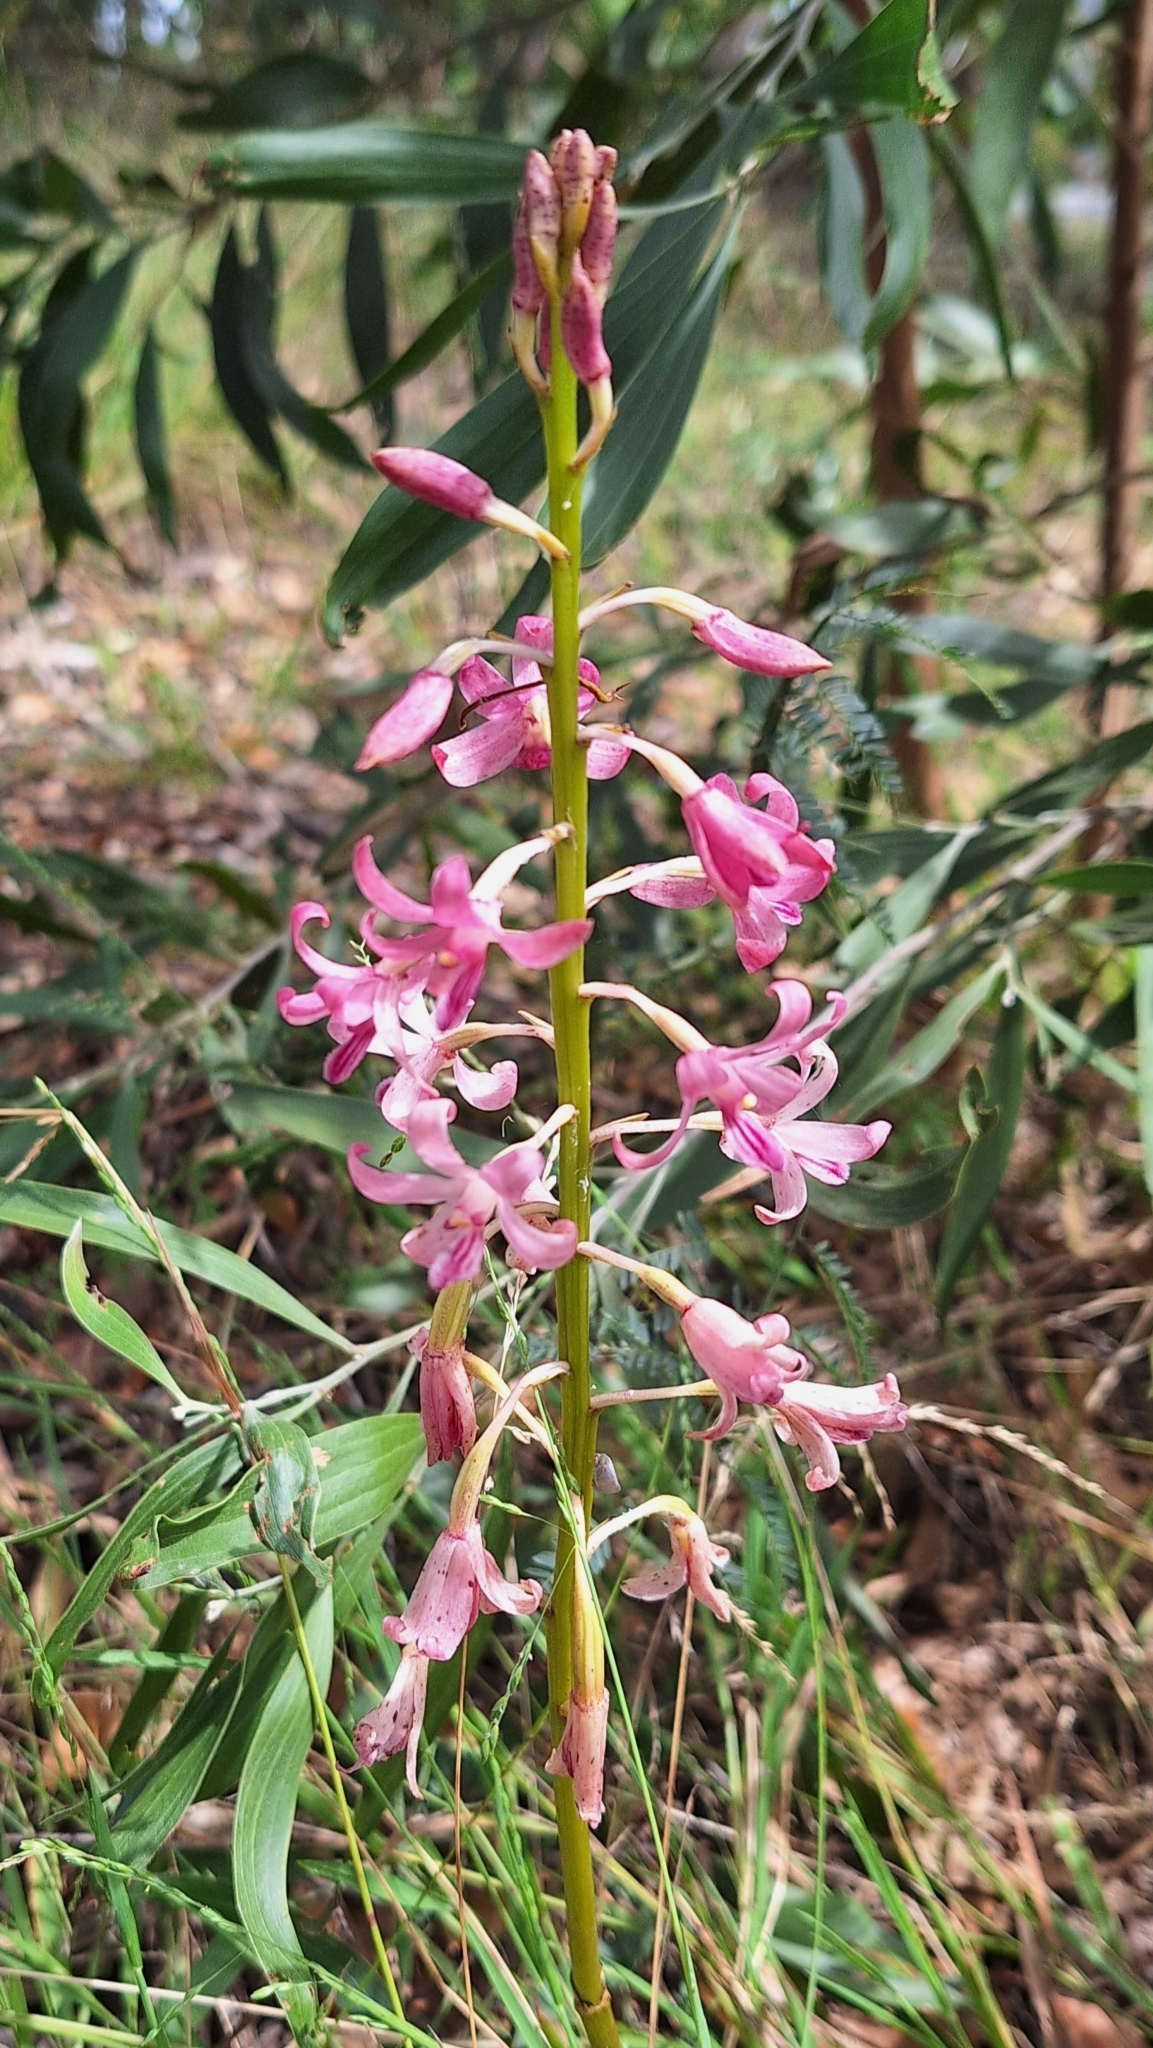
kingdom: Plantae
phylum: Tracheophyta
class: Liliopsida
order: Asparagales
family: Orchidaceae
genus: Dipodium
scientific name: Dipodium roseum
